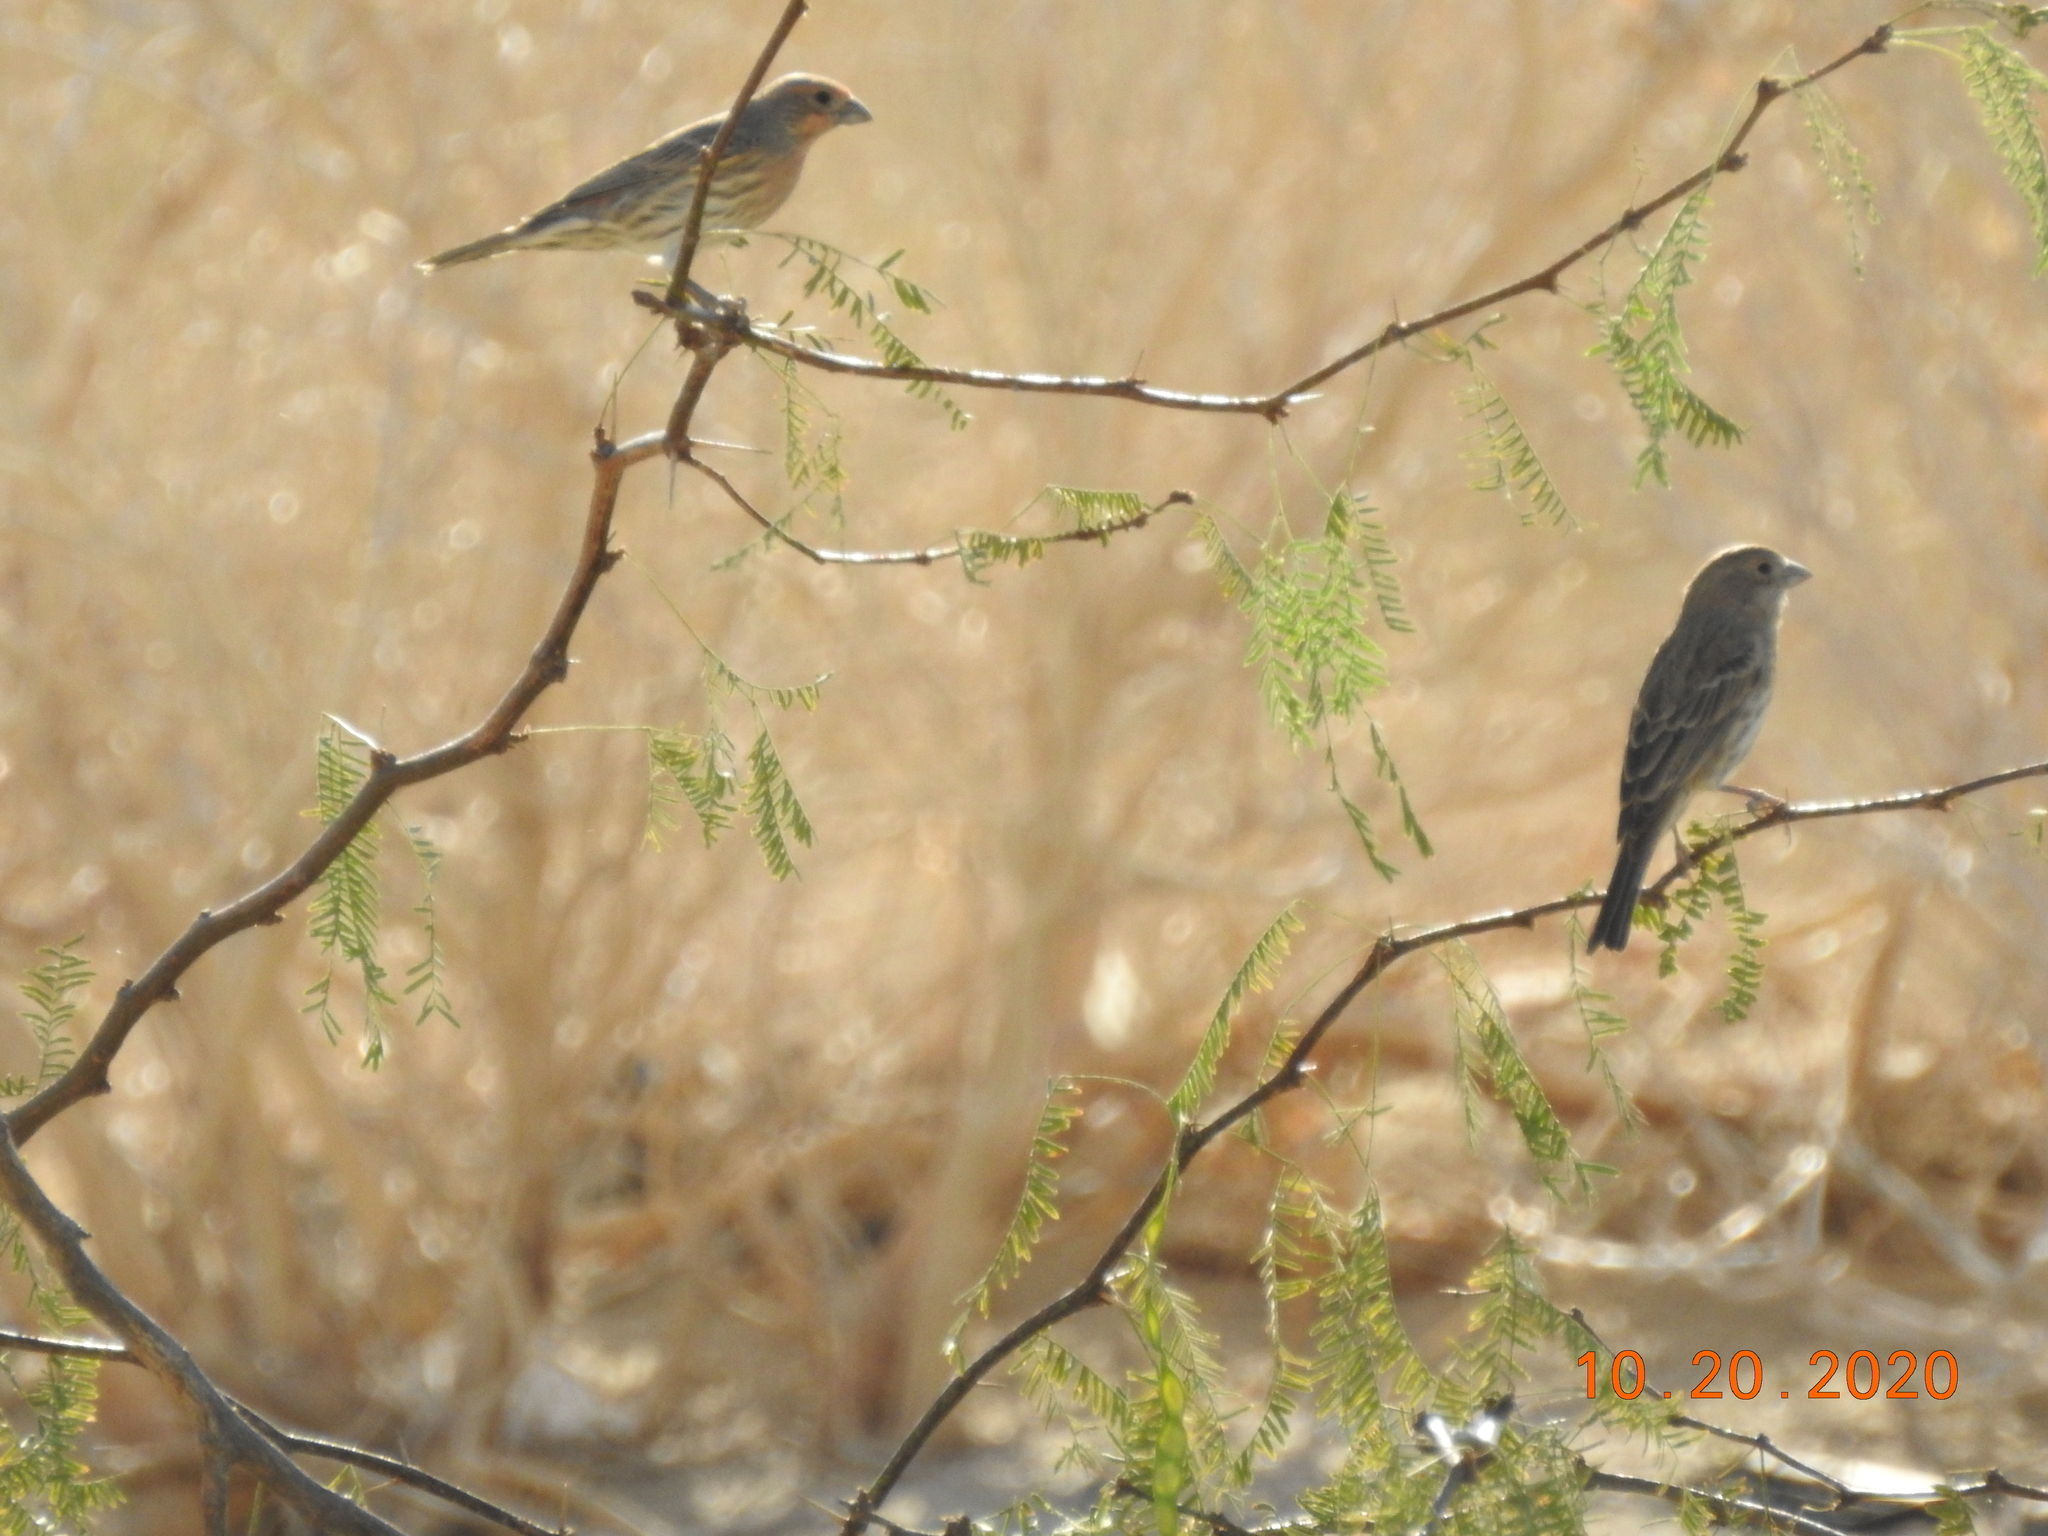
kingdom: Animalia
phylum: Chordata
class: Aves
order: Passeriformes
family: Fringillidae
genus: Haemorhous
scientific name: Haemorhous mexicanus
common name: House finch
